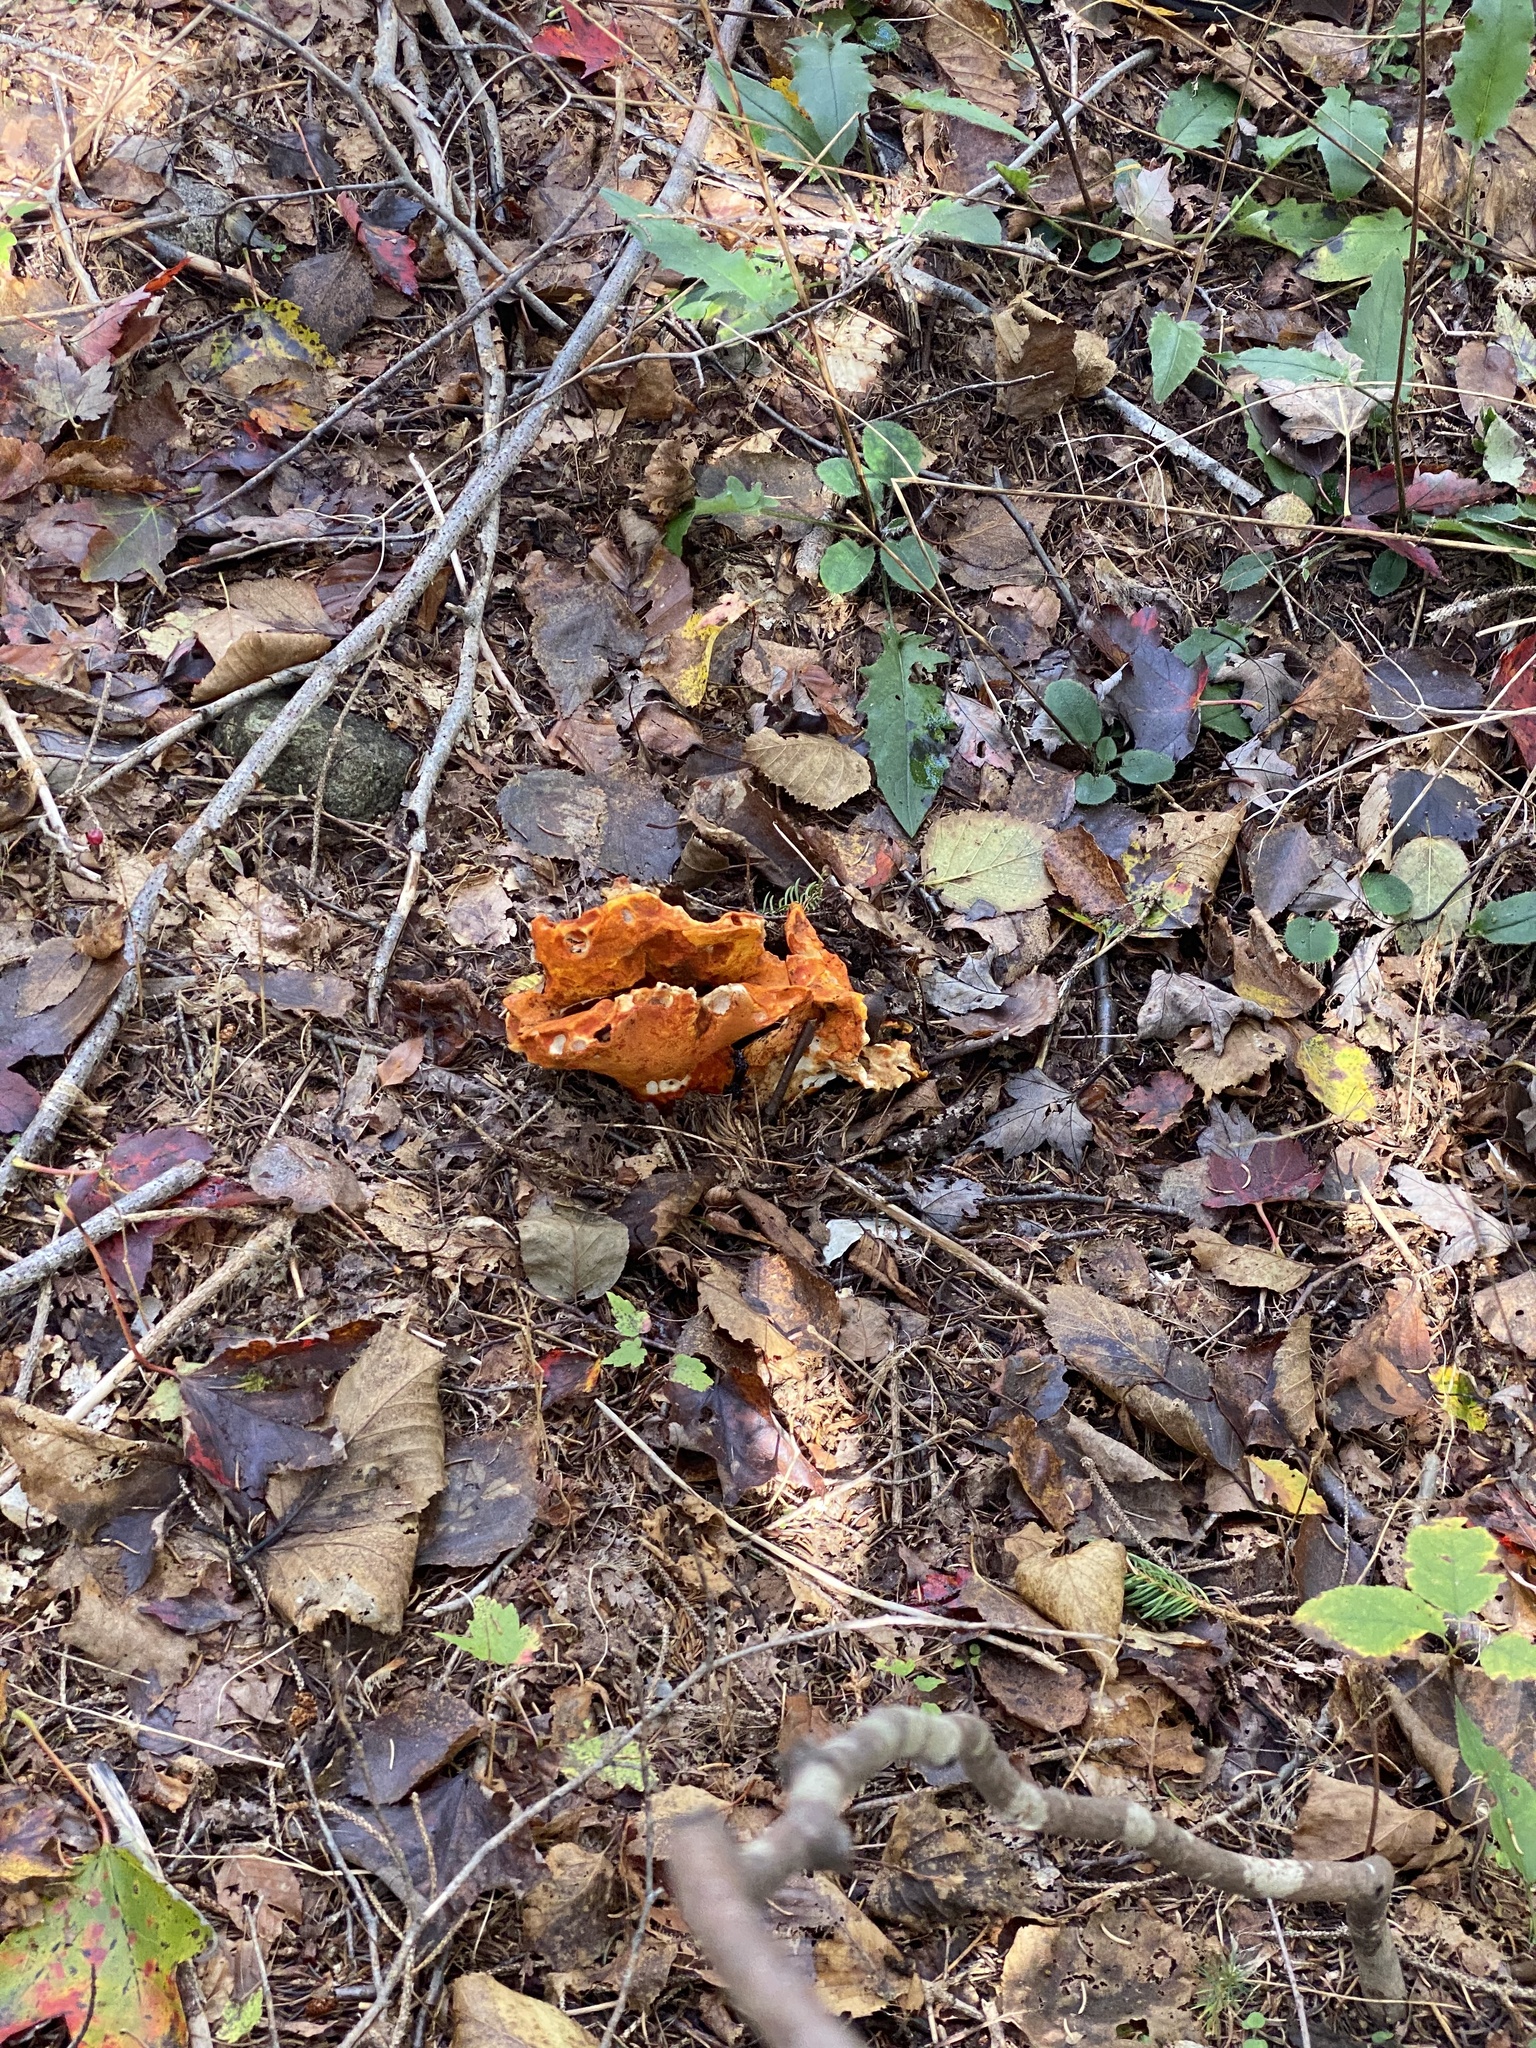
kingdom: Fungi
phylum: Ascomycota
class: Sordariomycetes
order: Hypocreales
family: Hypocreaceae
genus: Hypomyces
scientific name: Hypomyces lactifluorum
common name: Lobster mushroom
